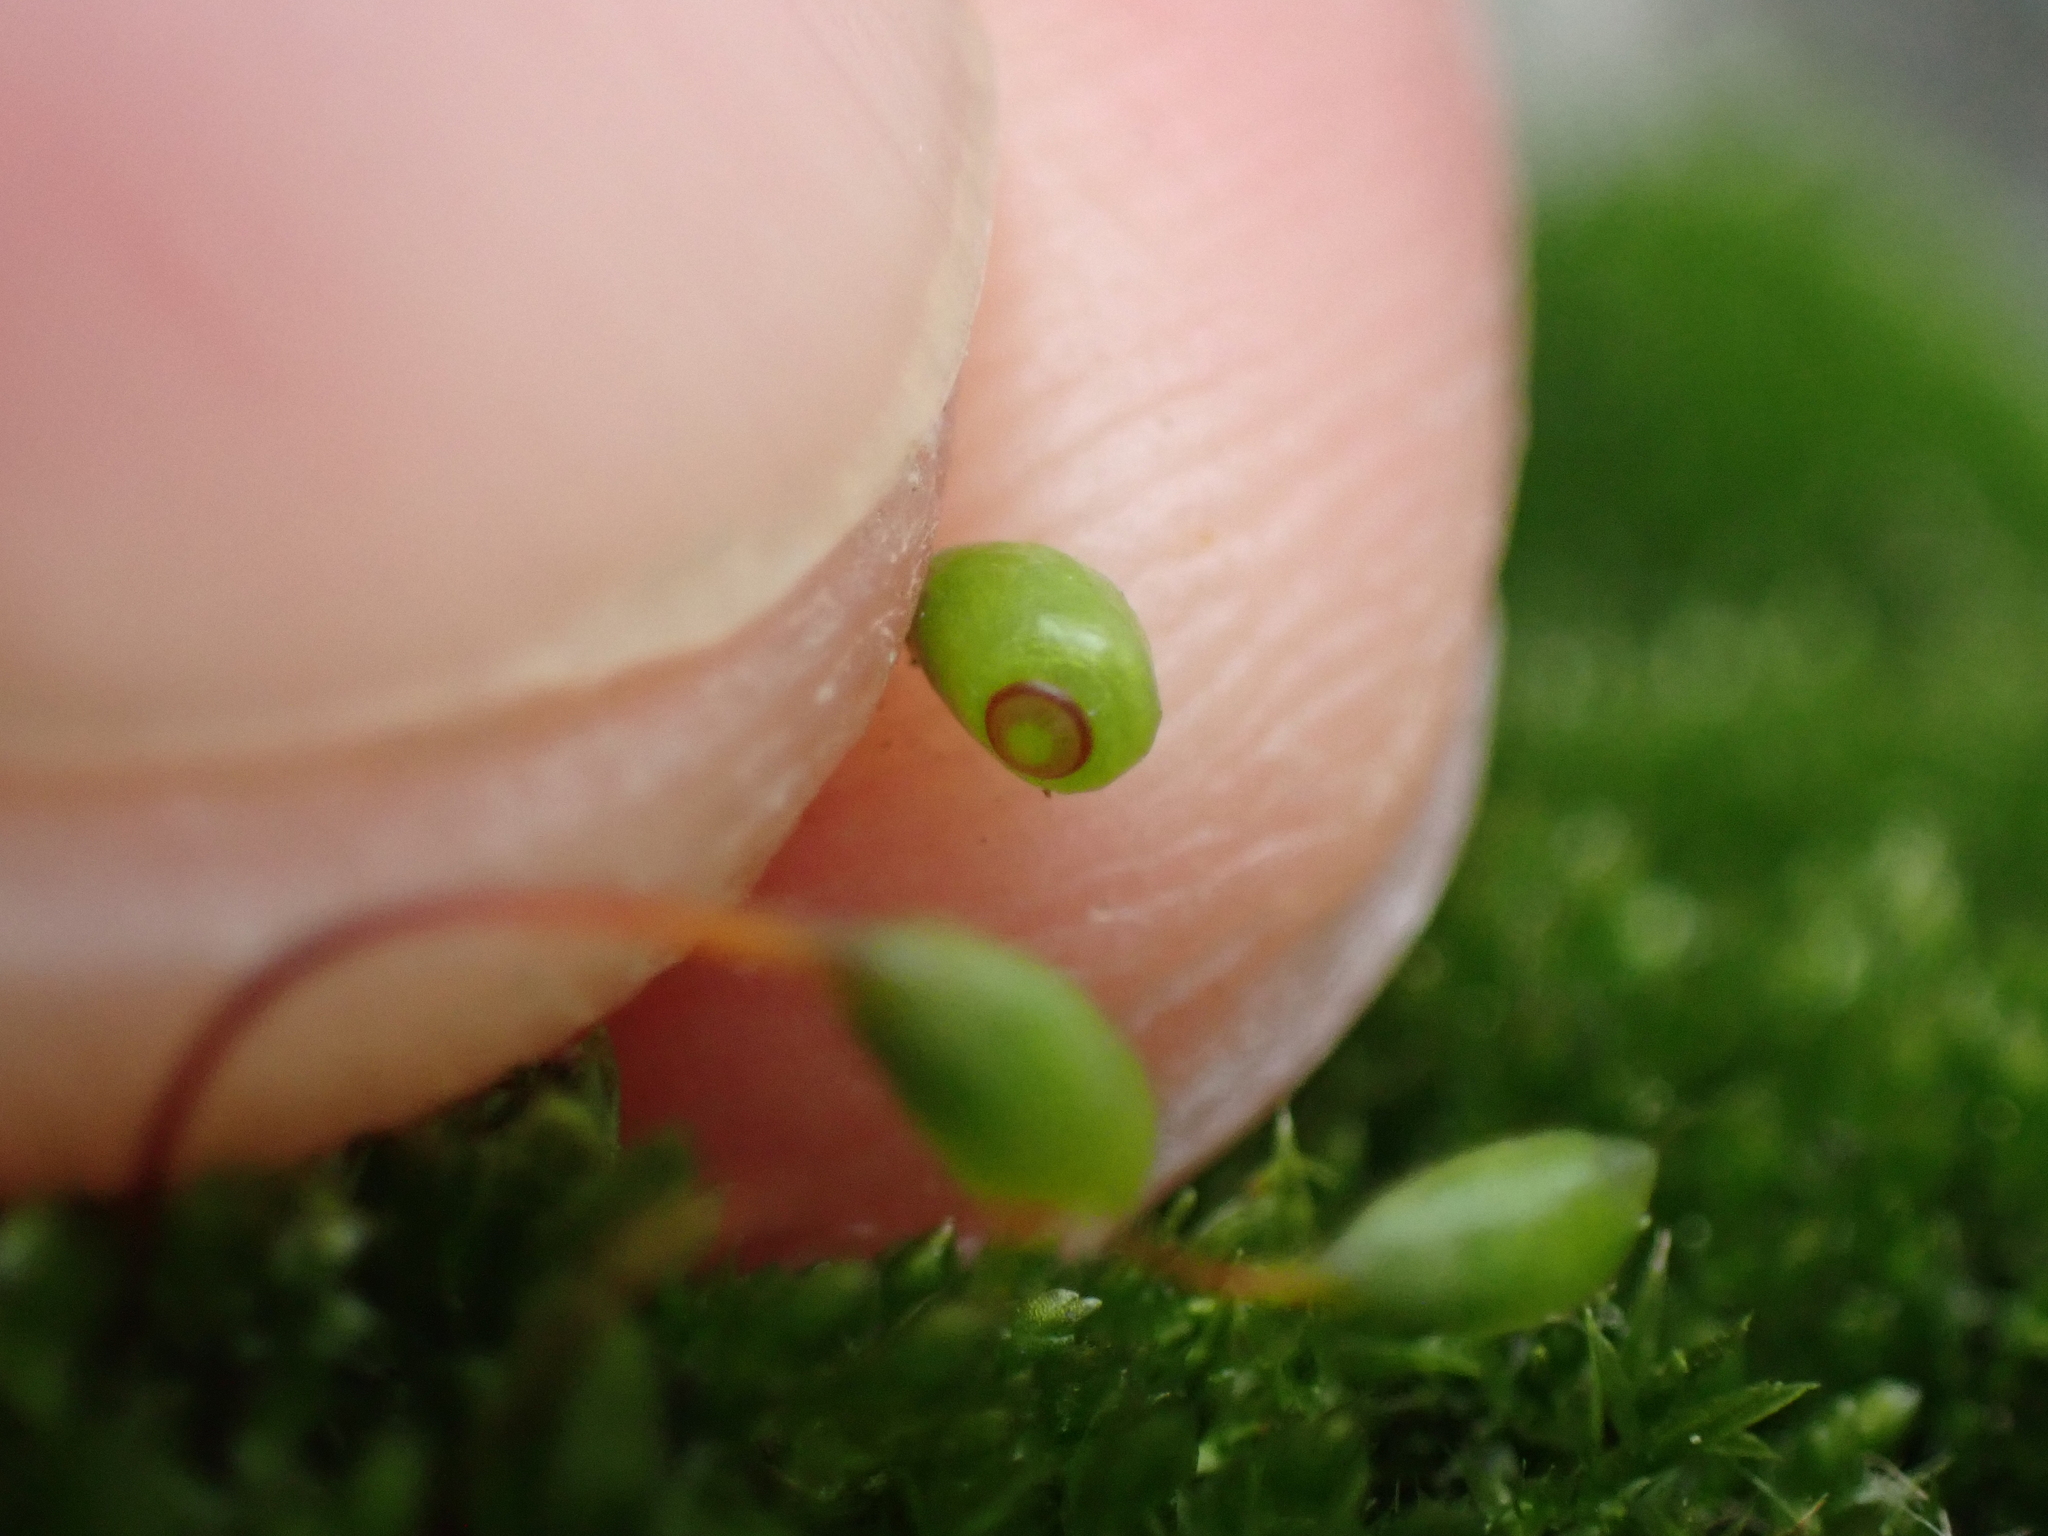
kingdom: Plantae
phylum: Bryophyta
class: Bryopsida
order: Funariales
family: Funariaceae
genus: Funaria
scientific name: Funaria hygrometrica
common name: Common cord moss
